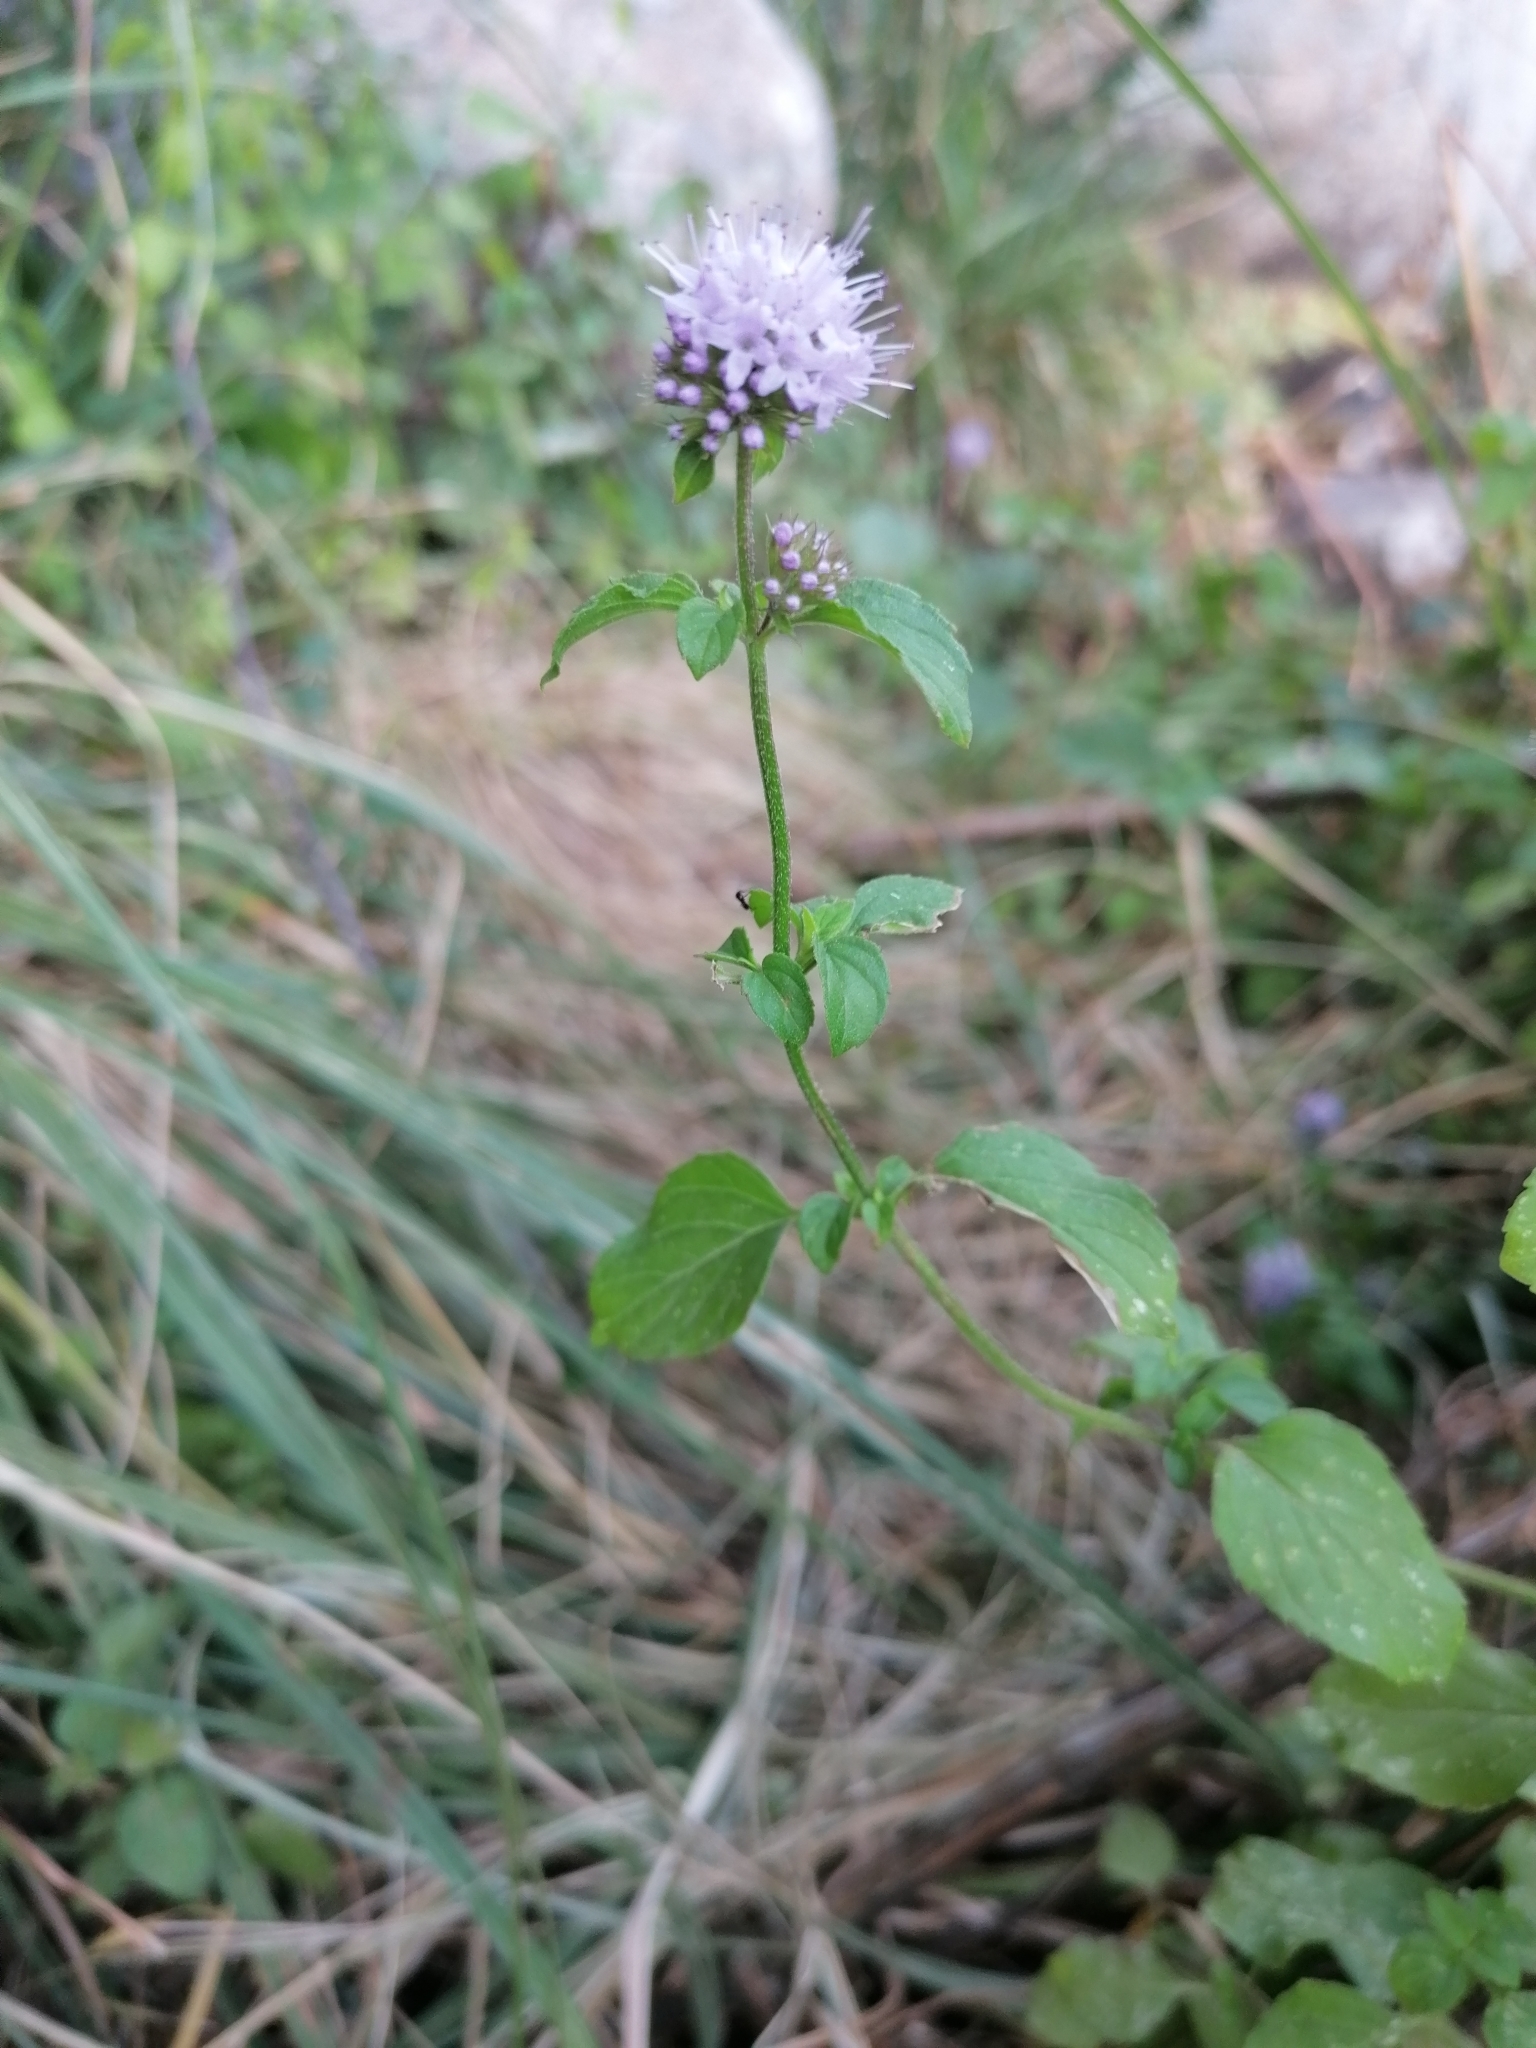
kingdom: Plantae
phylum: Tracheophyta
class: Magnoliopsida
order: Lamiales
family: Lamiaceae
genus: Mentha
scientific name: Mentha aquatica
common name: Water mint
